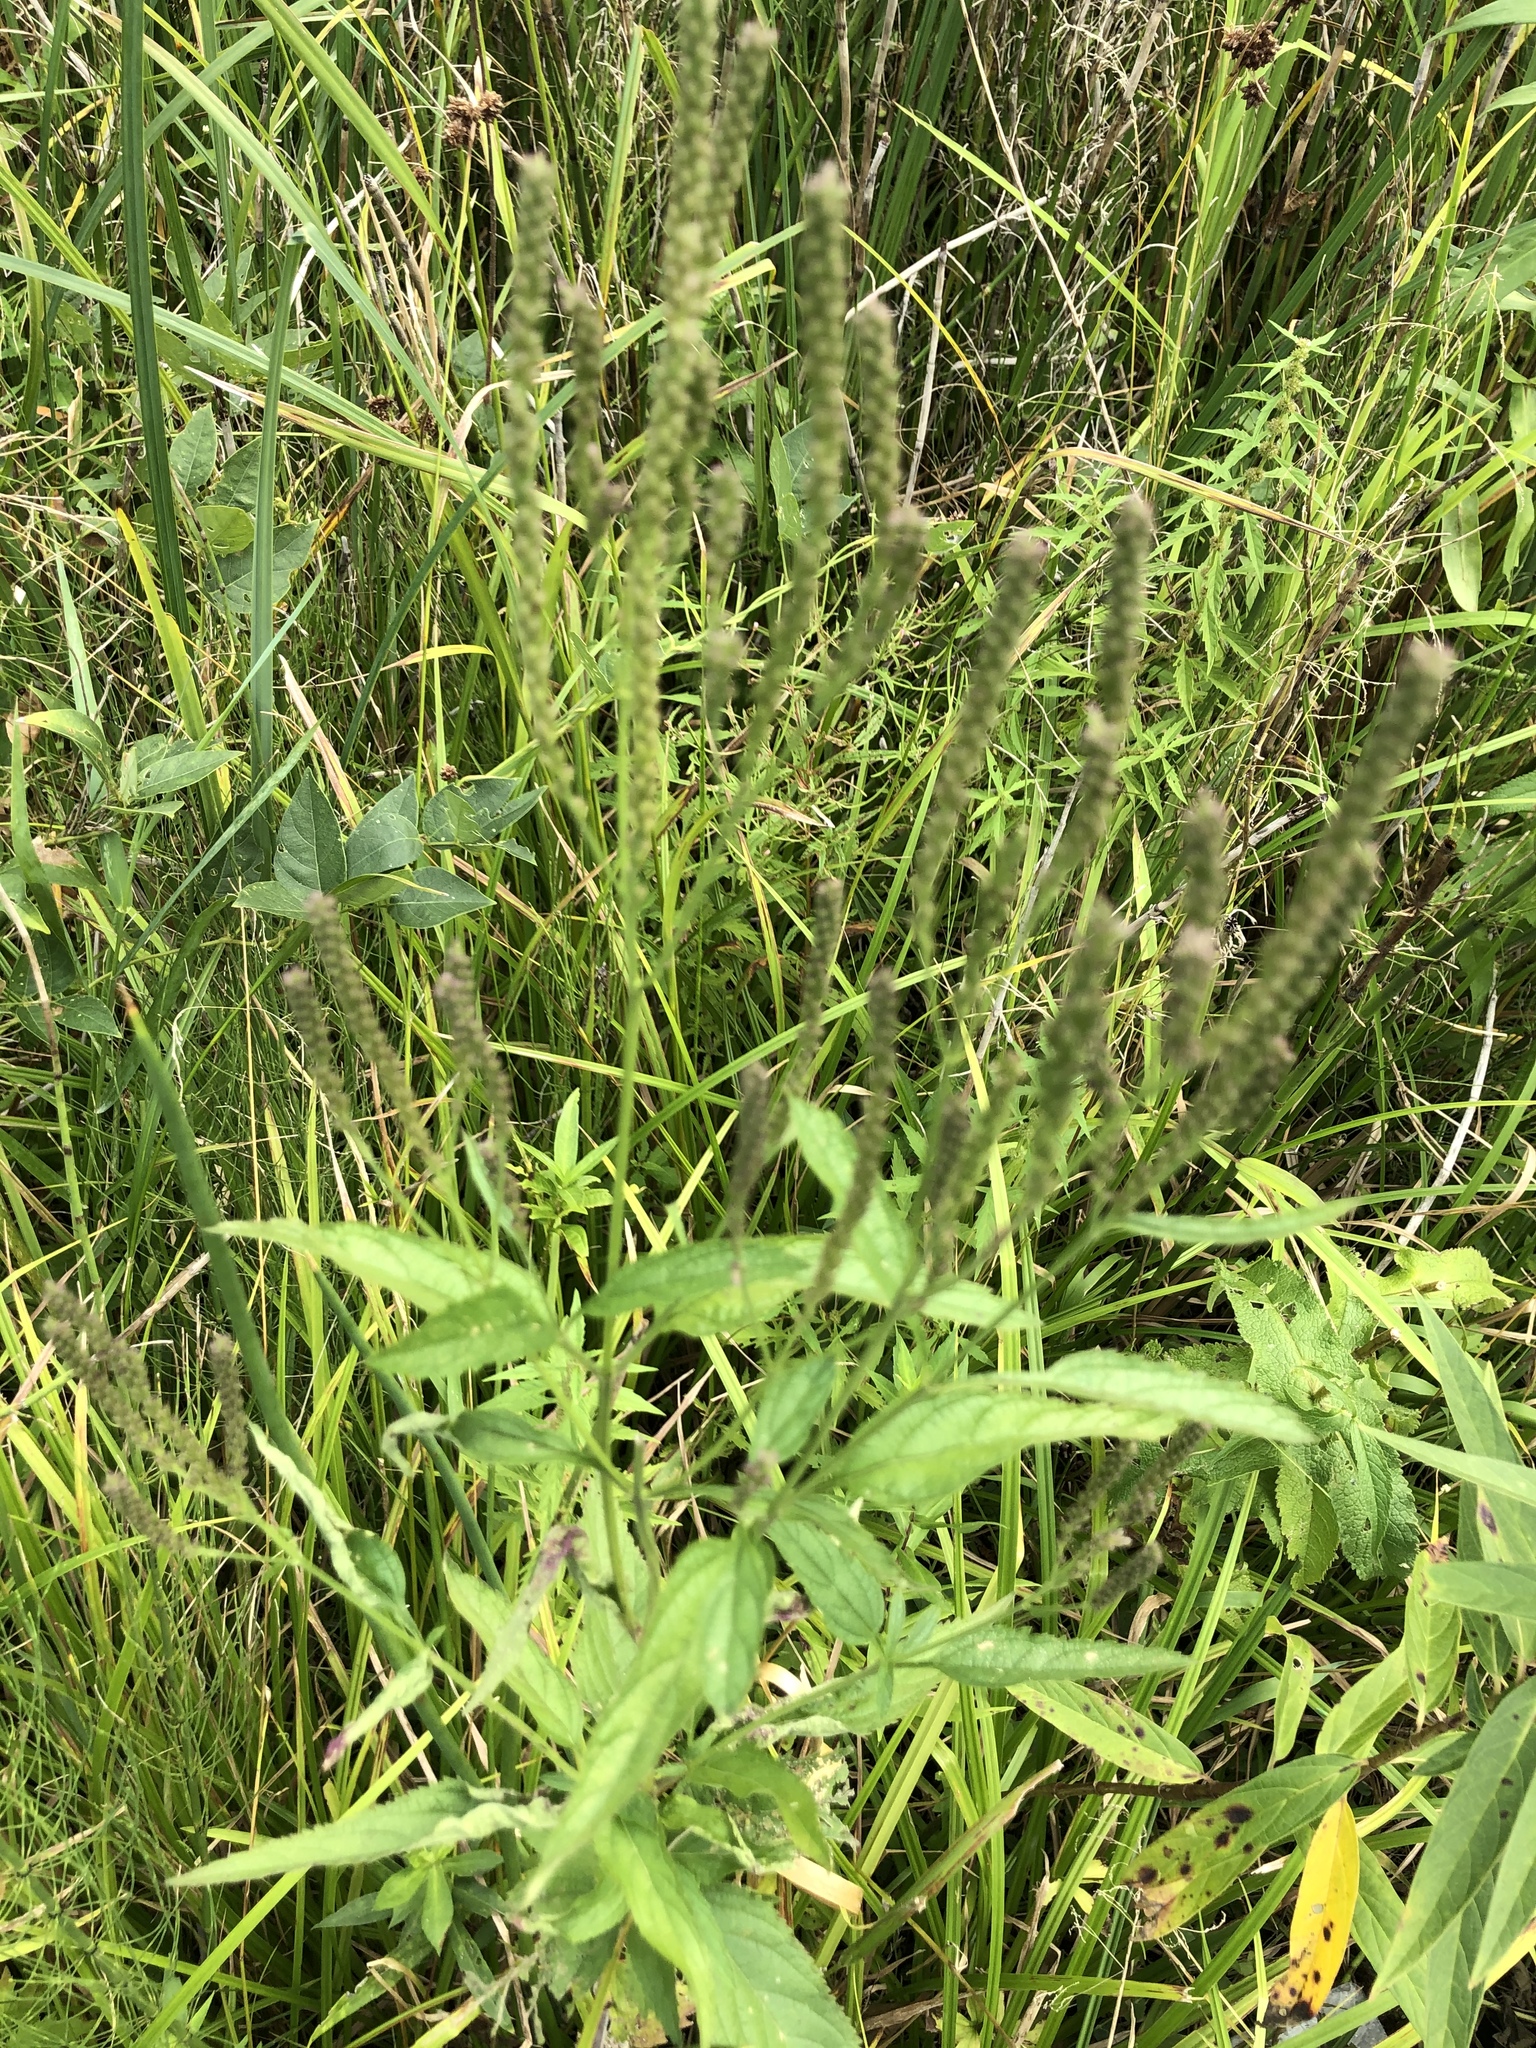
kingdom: Plantae
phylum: Tracheophyta
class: Magnoliopsida
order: Lamiales
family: Verbenaceae
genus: Verbena
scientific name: Verbena hastata
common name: American blue vervain
